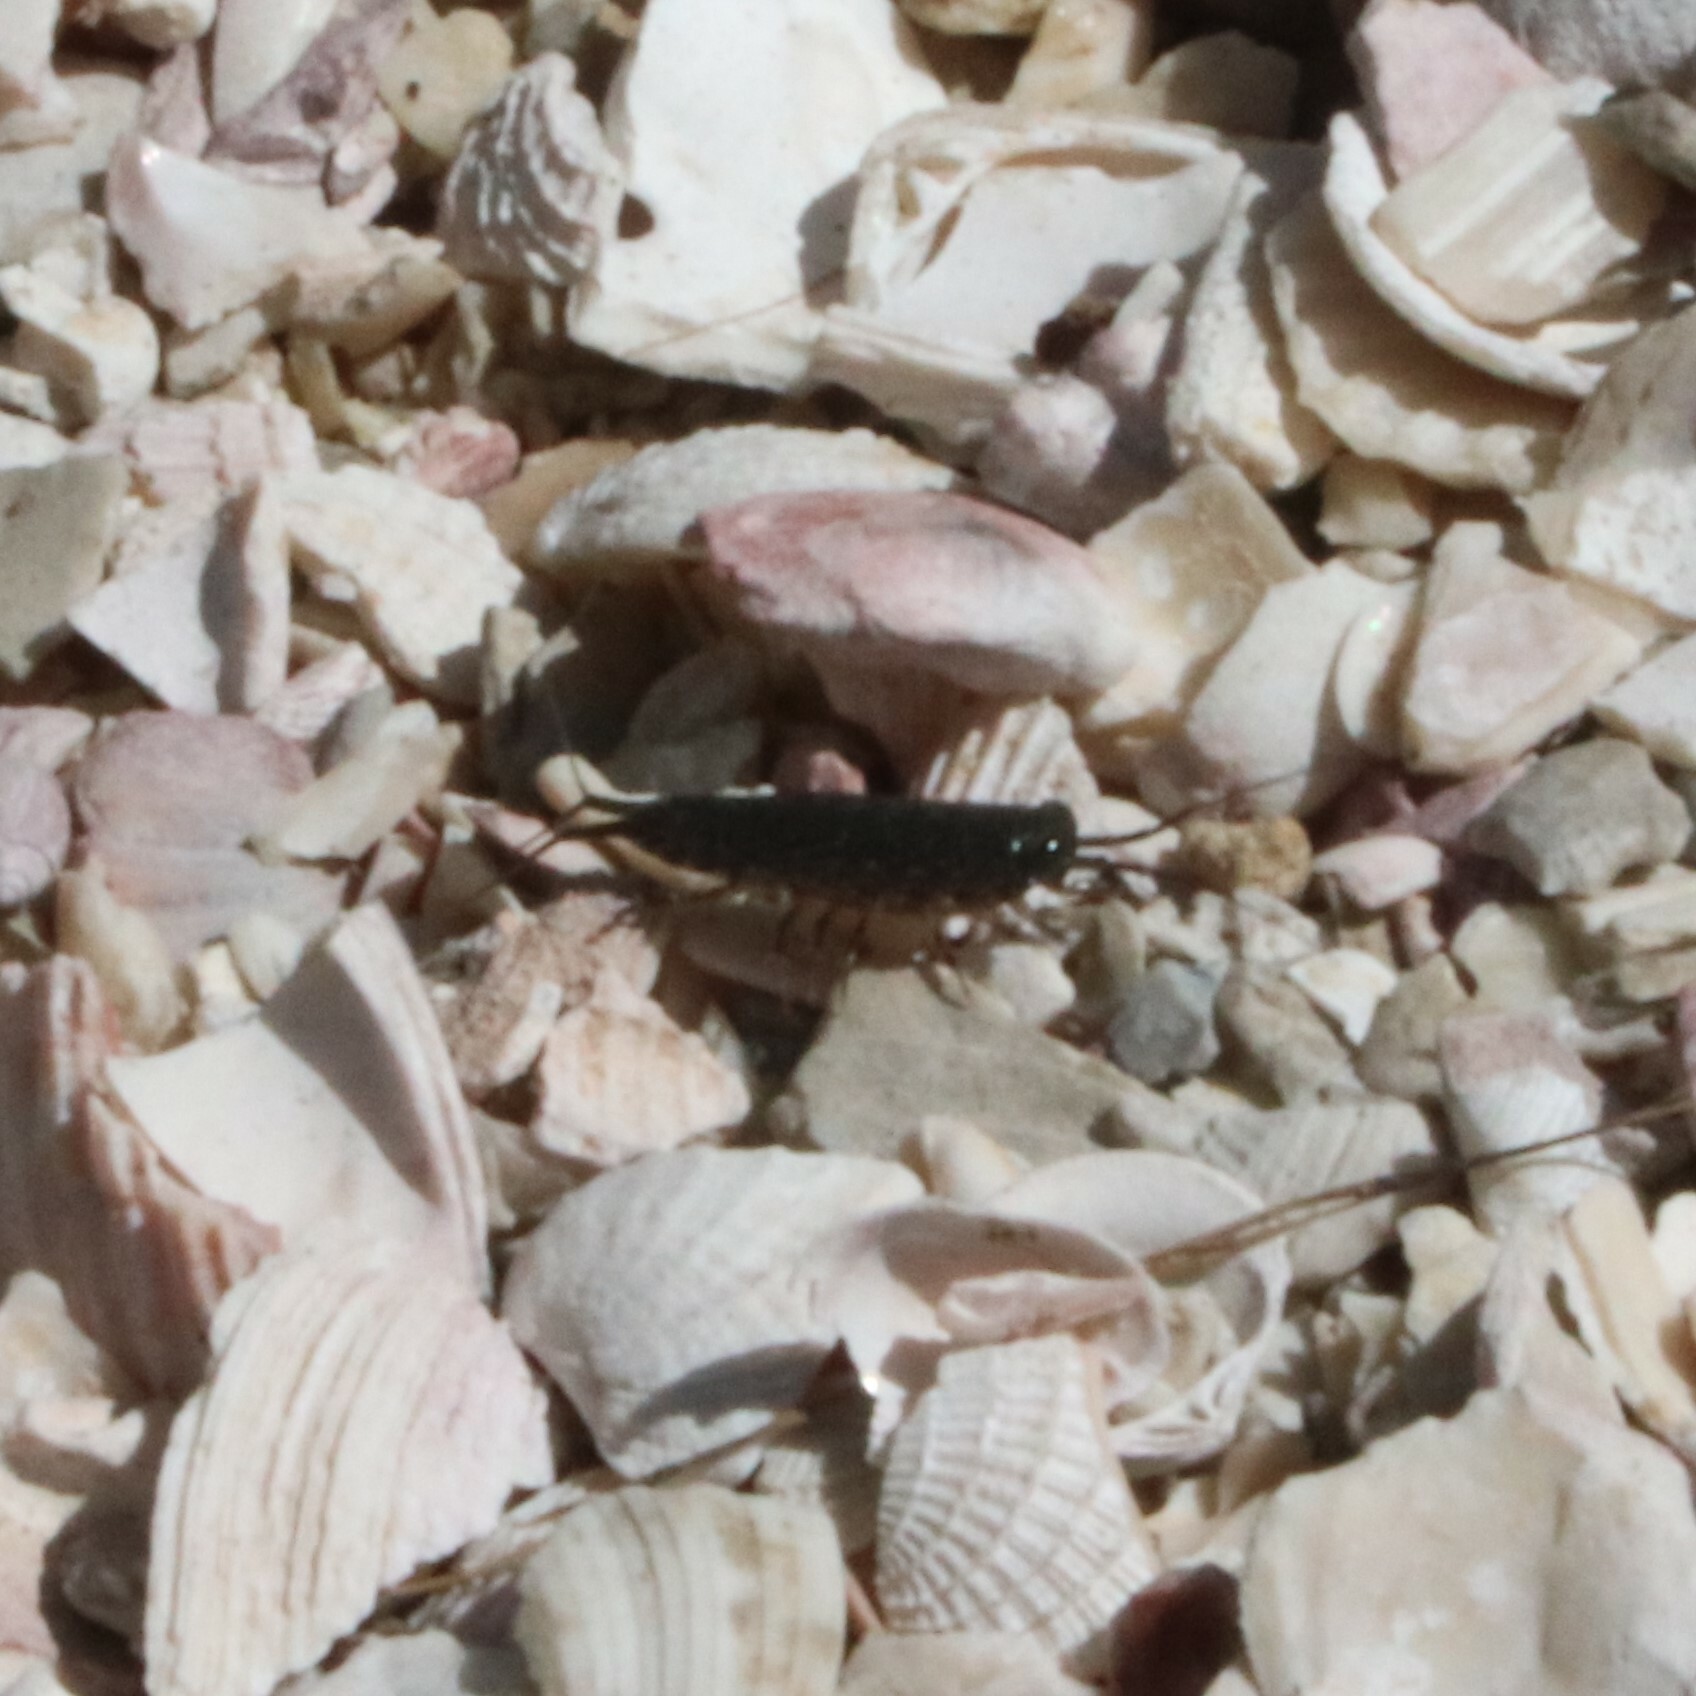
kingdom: Animalia
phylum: Arthropoda
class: Malacostraca
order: Isopoda
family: Ligiidae
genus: Ligia
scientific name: Ligia exotica
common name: Wharf roach
